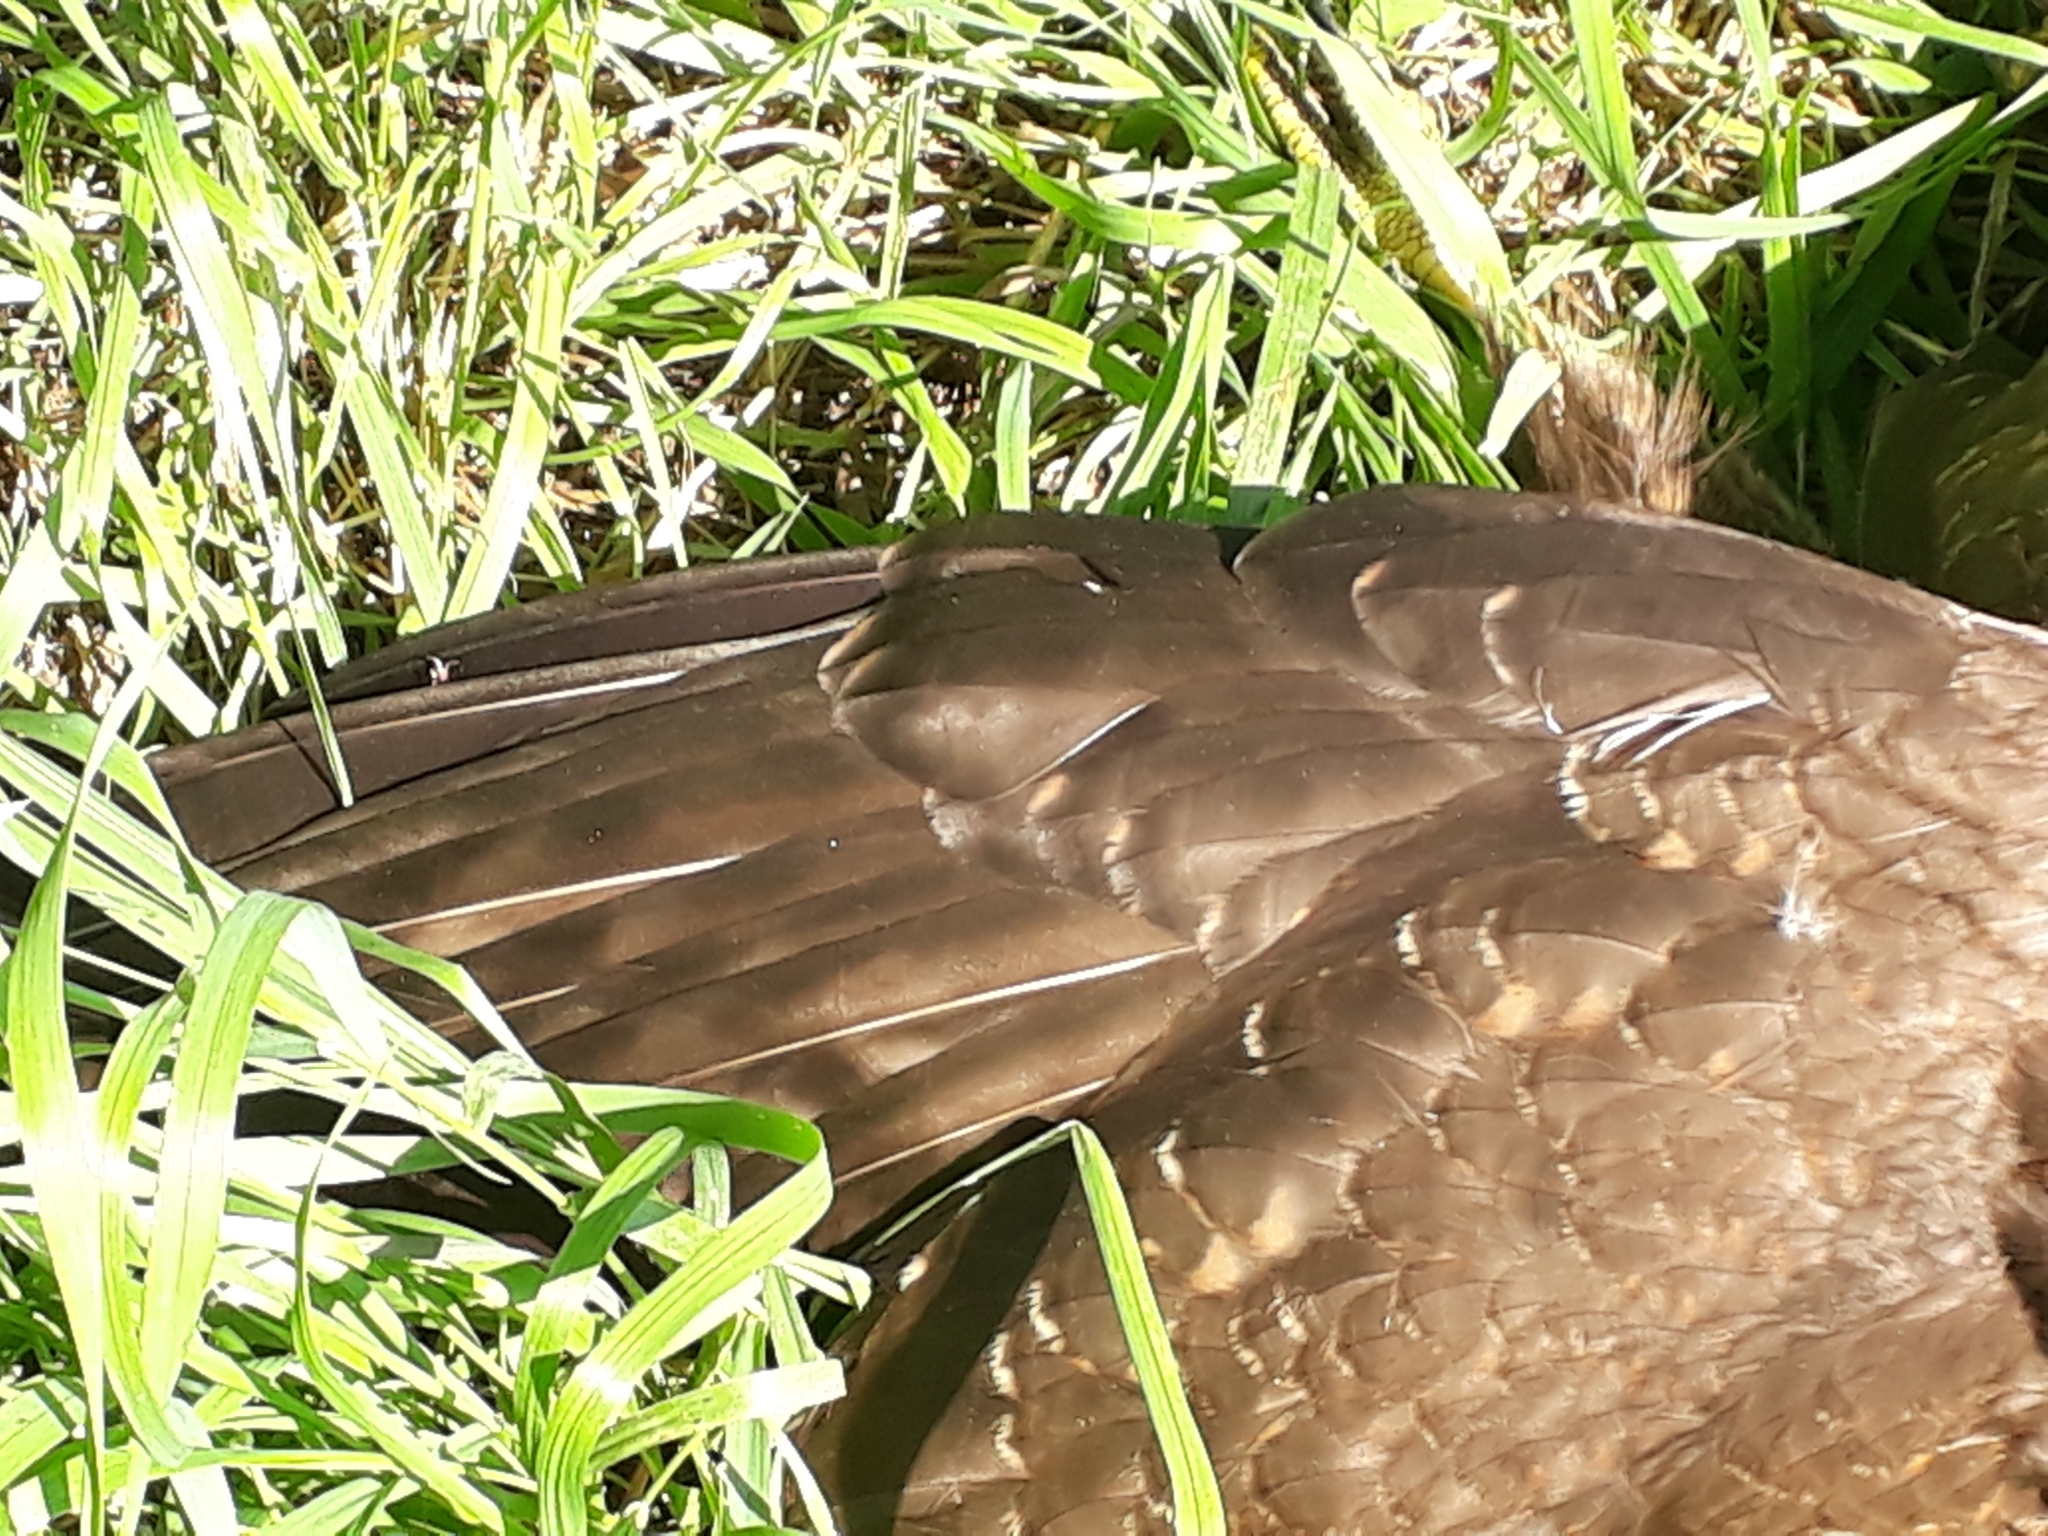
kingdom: Animalia
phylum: Chordata
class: Aves
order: Accipitriformes
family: Accipitridae
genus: Buteo
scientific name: Buteo buteo
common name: Common buzzard
